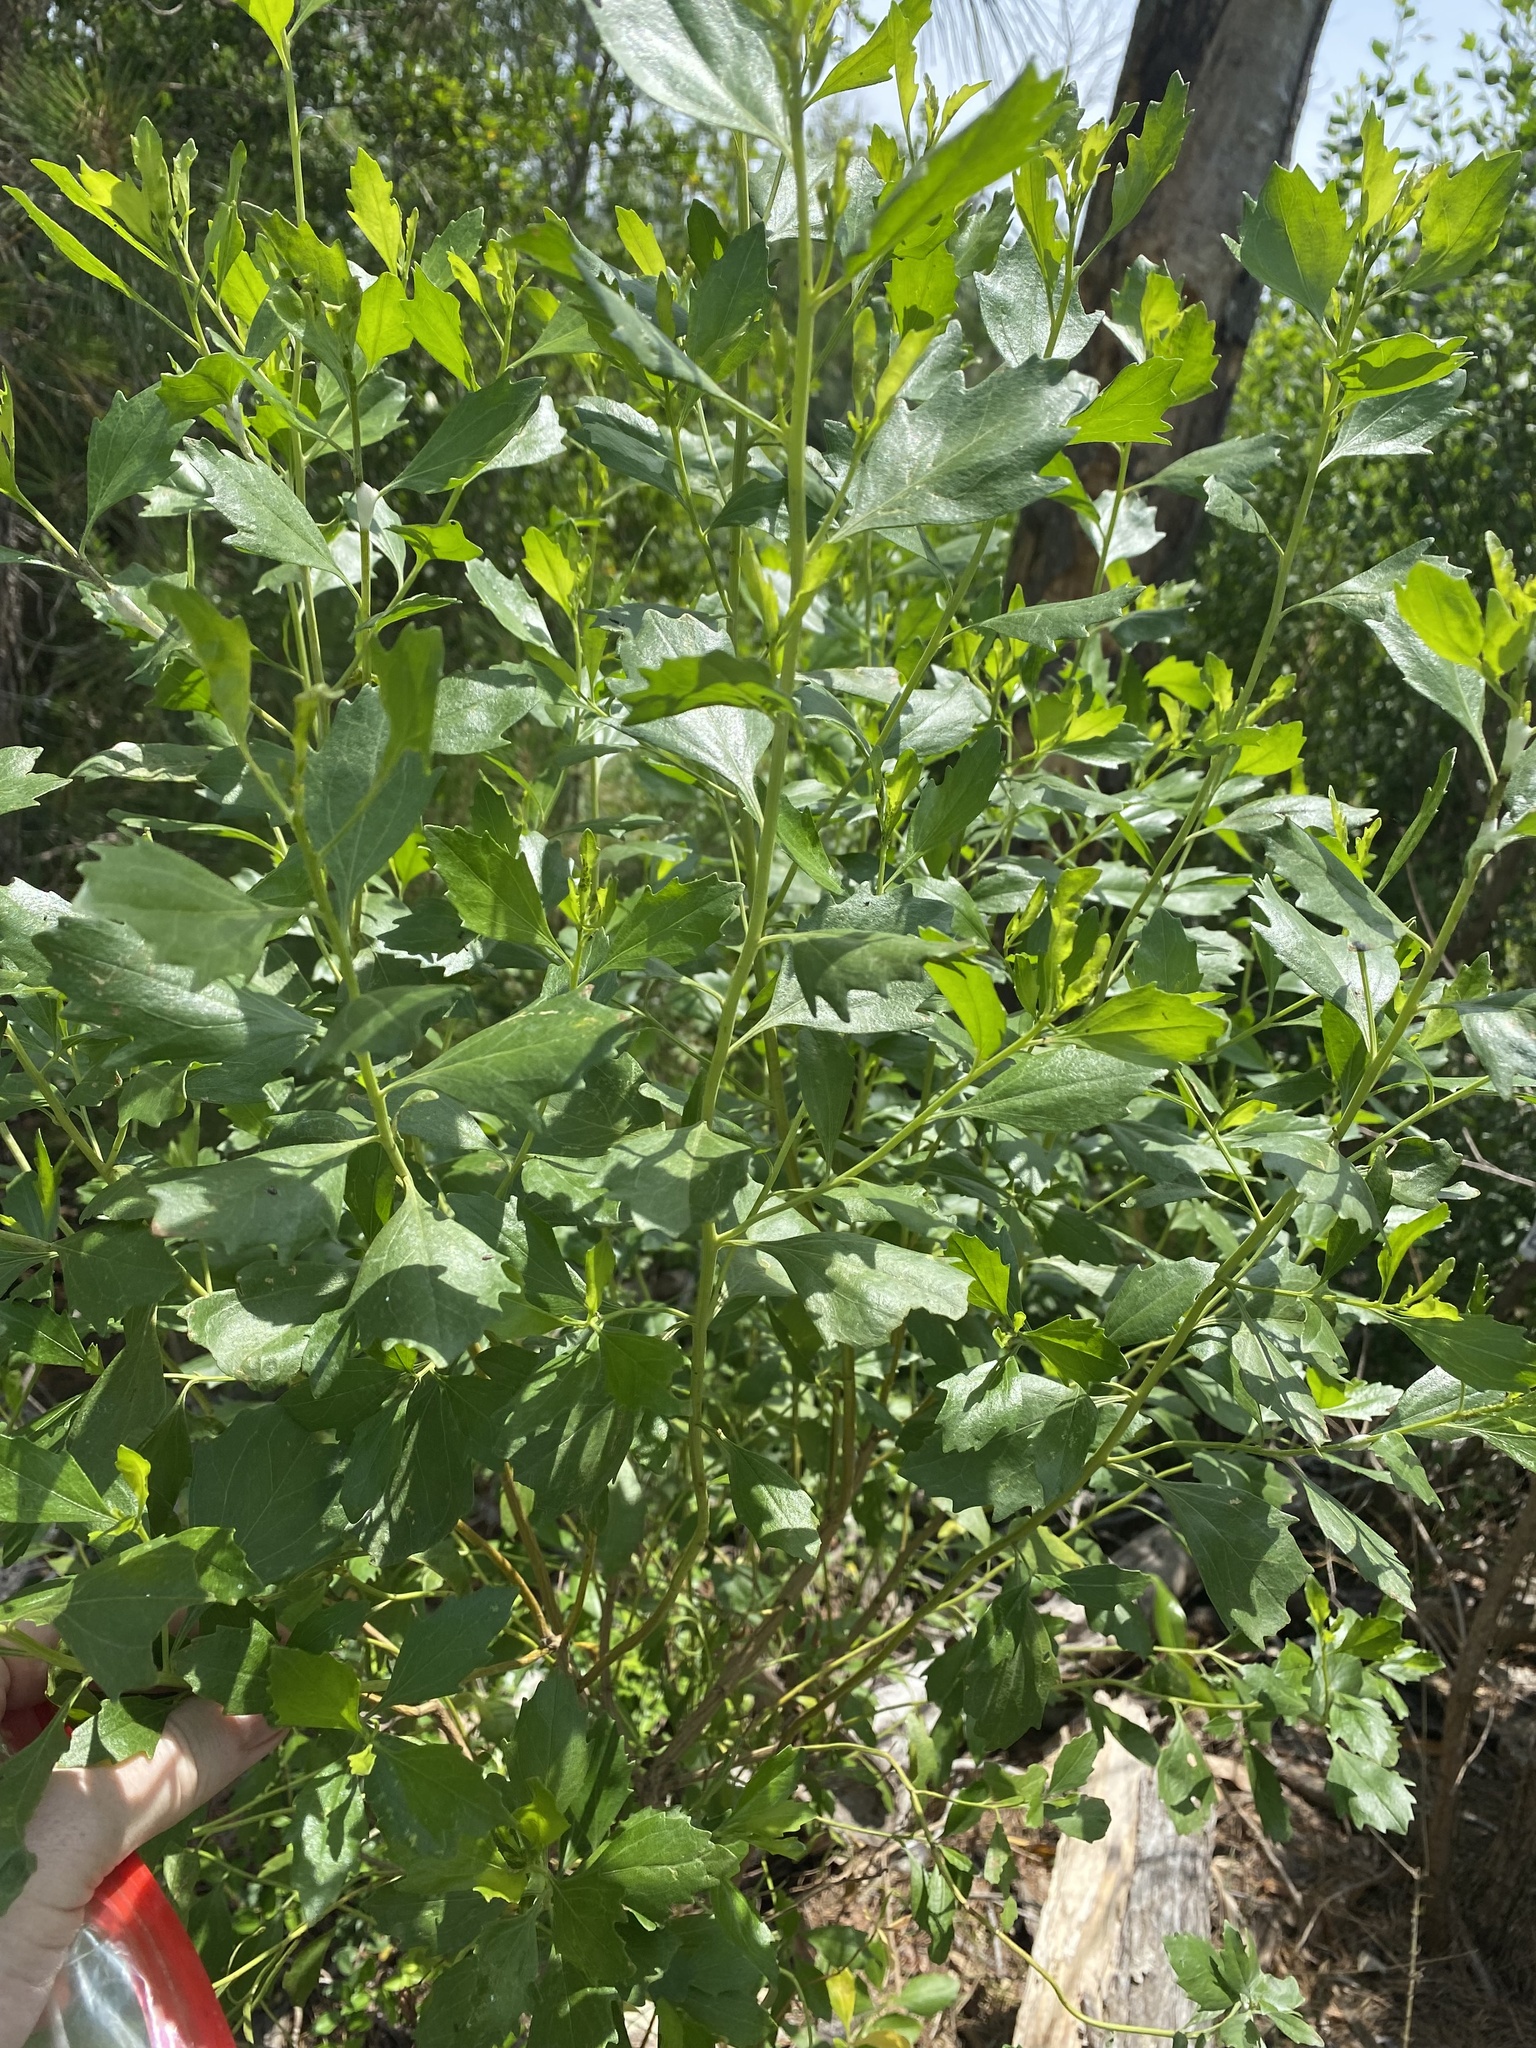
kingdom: Plantae
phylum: Tracheophyta
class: Magnoliopsida
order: Asterales
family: Asteraceae
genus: Baccharis
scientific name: Baccharis halimifolia
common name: Eastern baccharis
